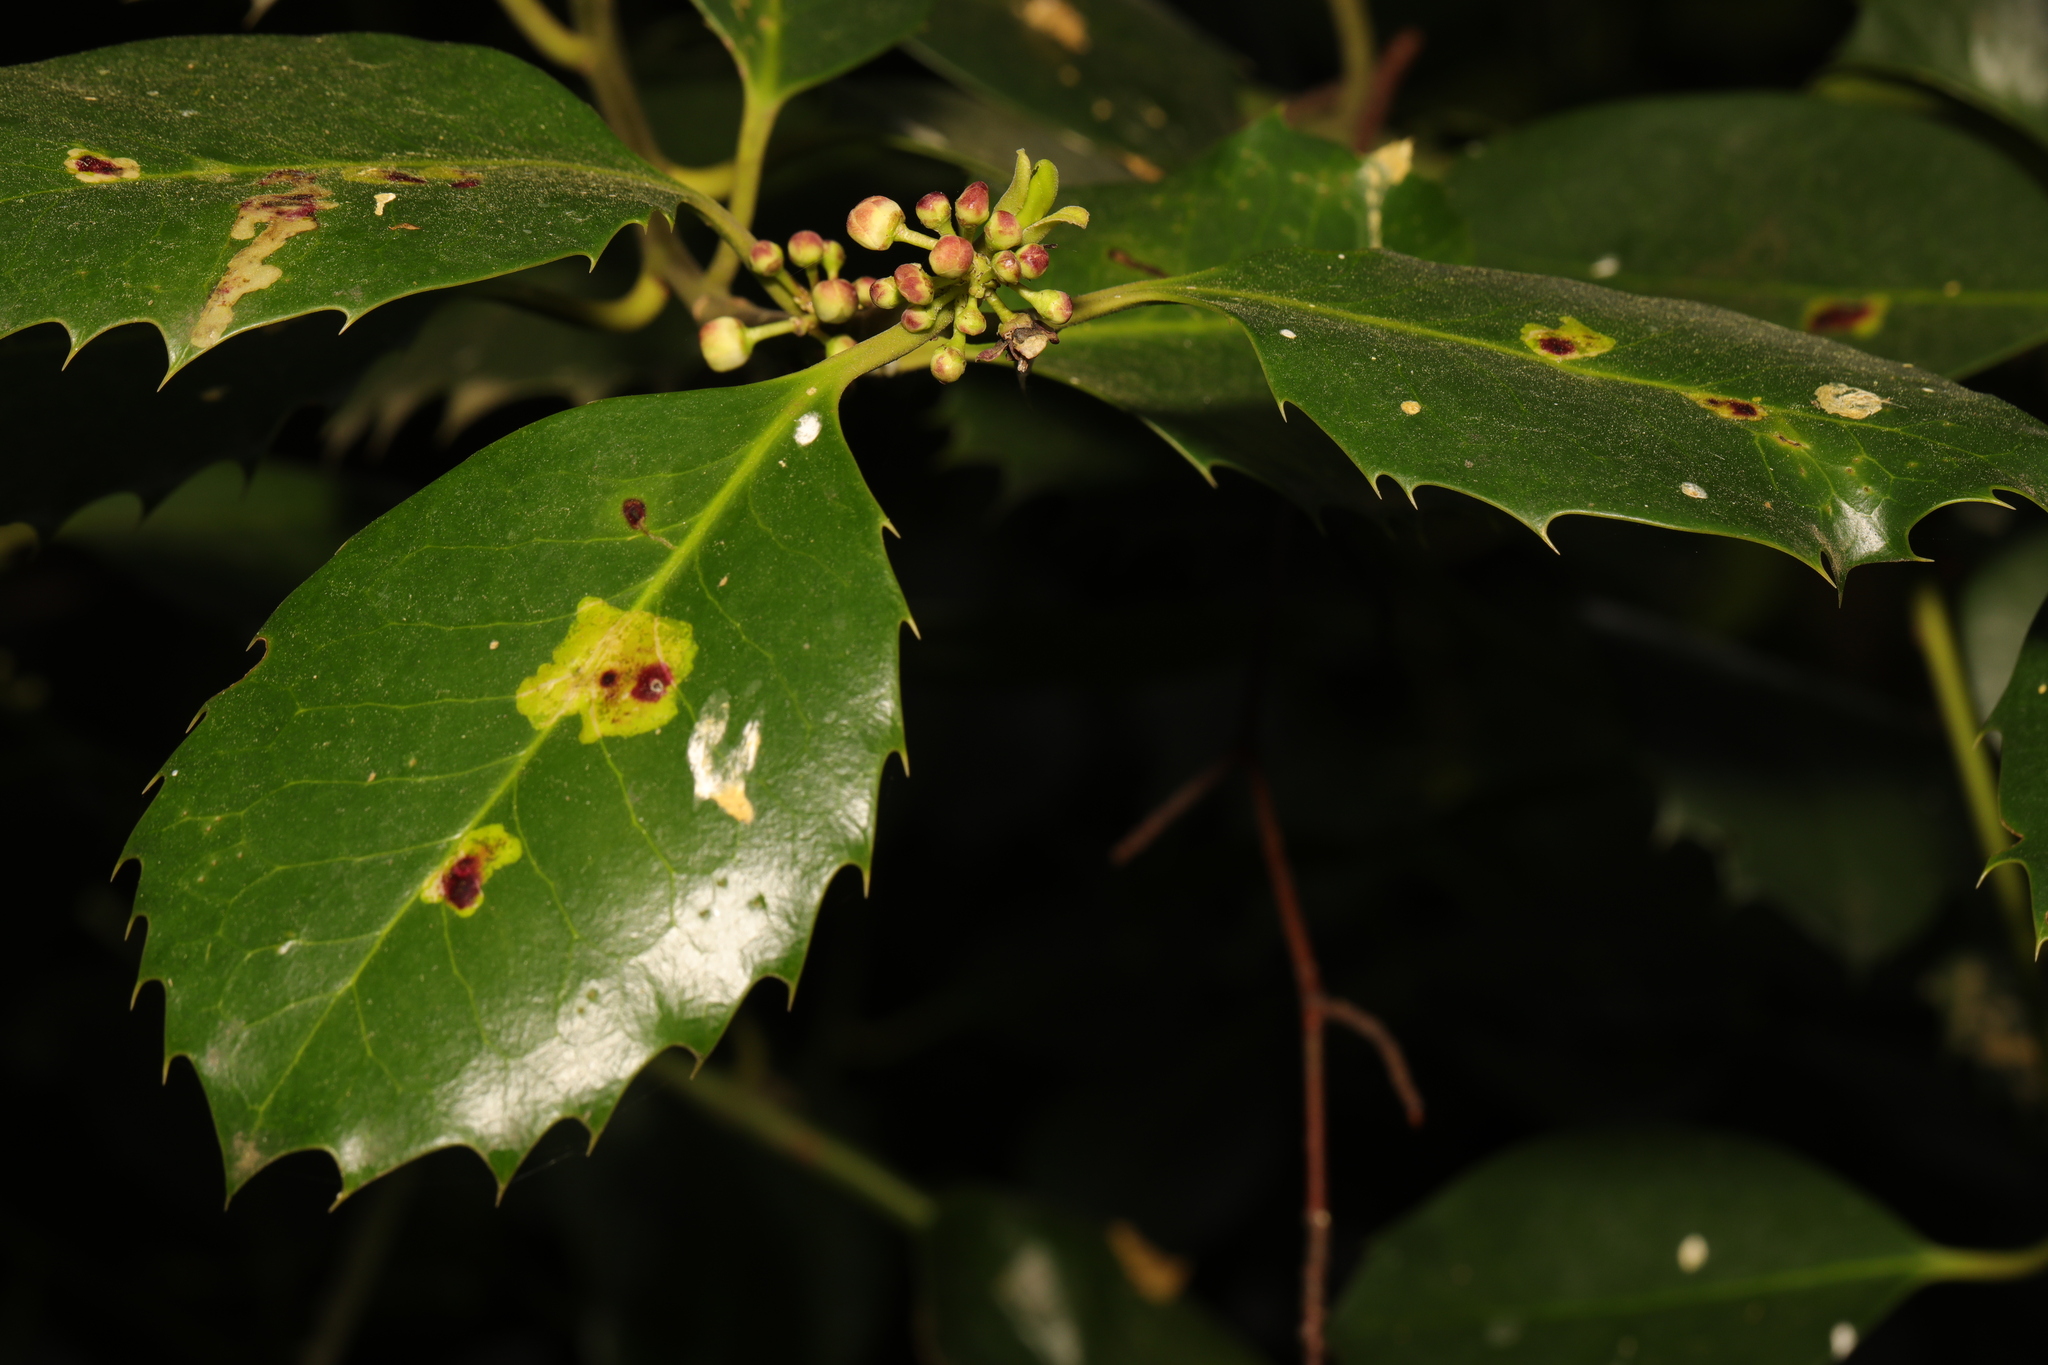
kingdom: Plantae
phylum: Tracheophyta
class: Magnoliopsida
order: Aquifoliales
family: Aquifoliaceae
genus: Ilex
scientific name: Ilex aquifolium
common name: English holly
